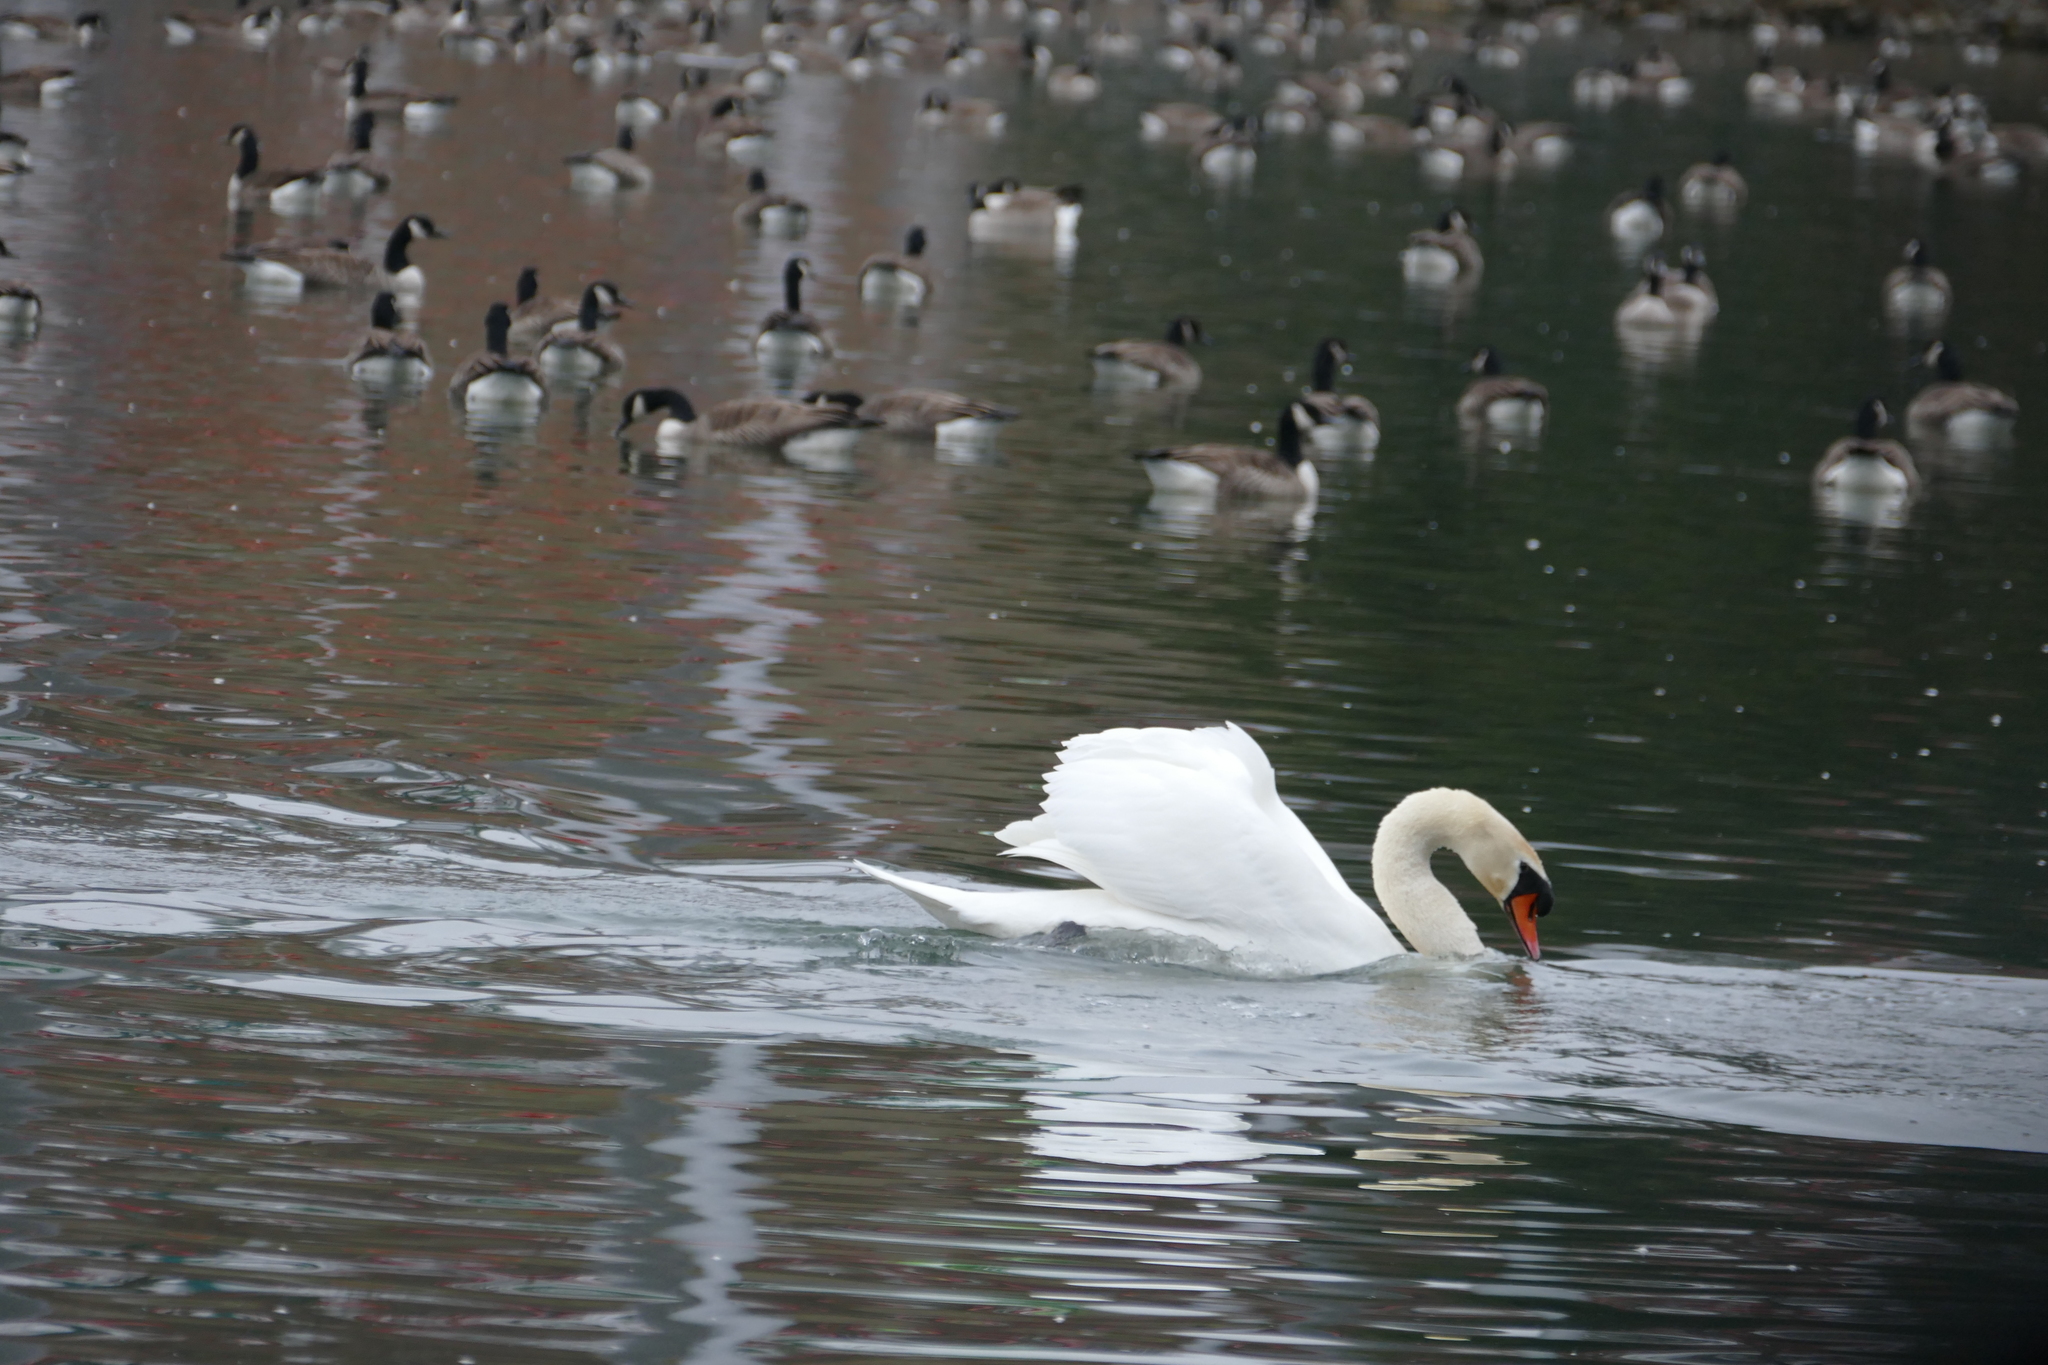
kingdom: Animalia
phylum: Chordata
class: Aves
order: Anseriformes
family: Anatidae
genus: Cygnus
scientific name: Cygnus olor
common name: Mute swan
